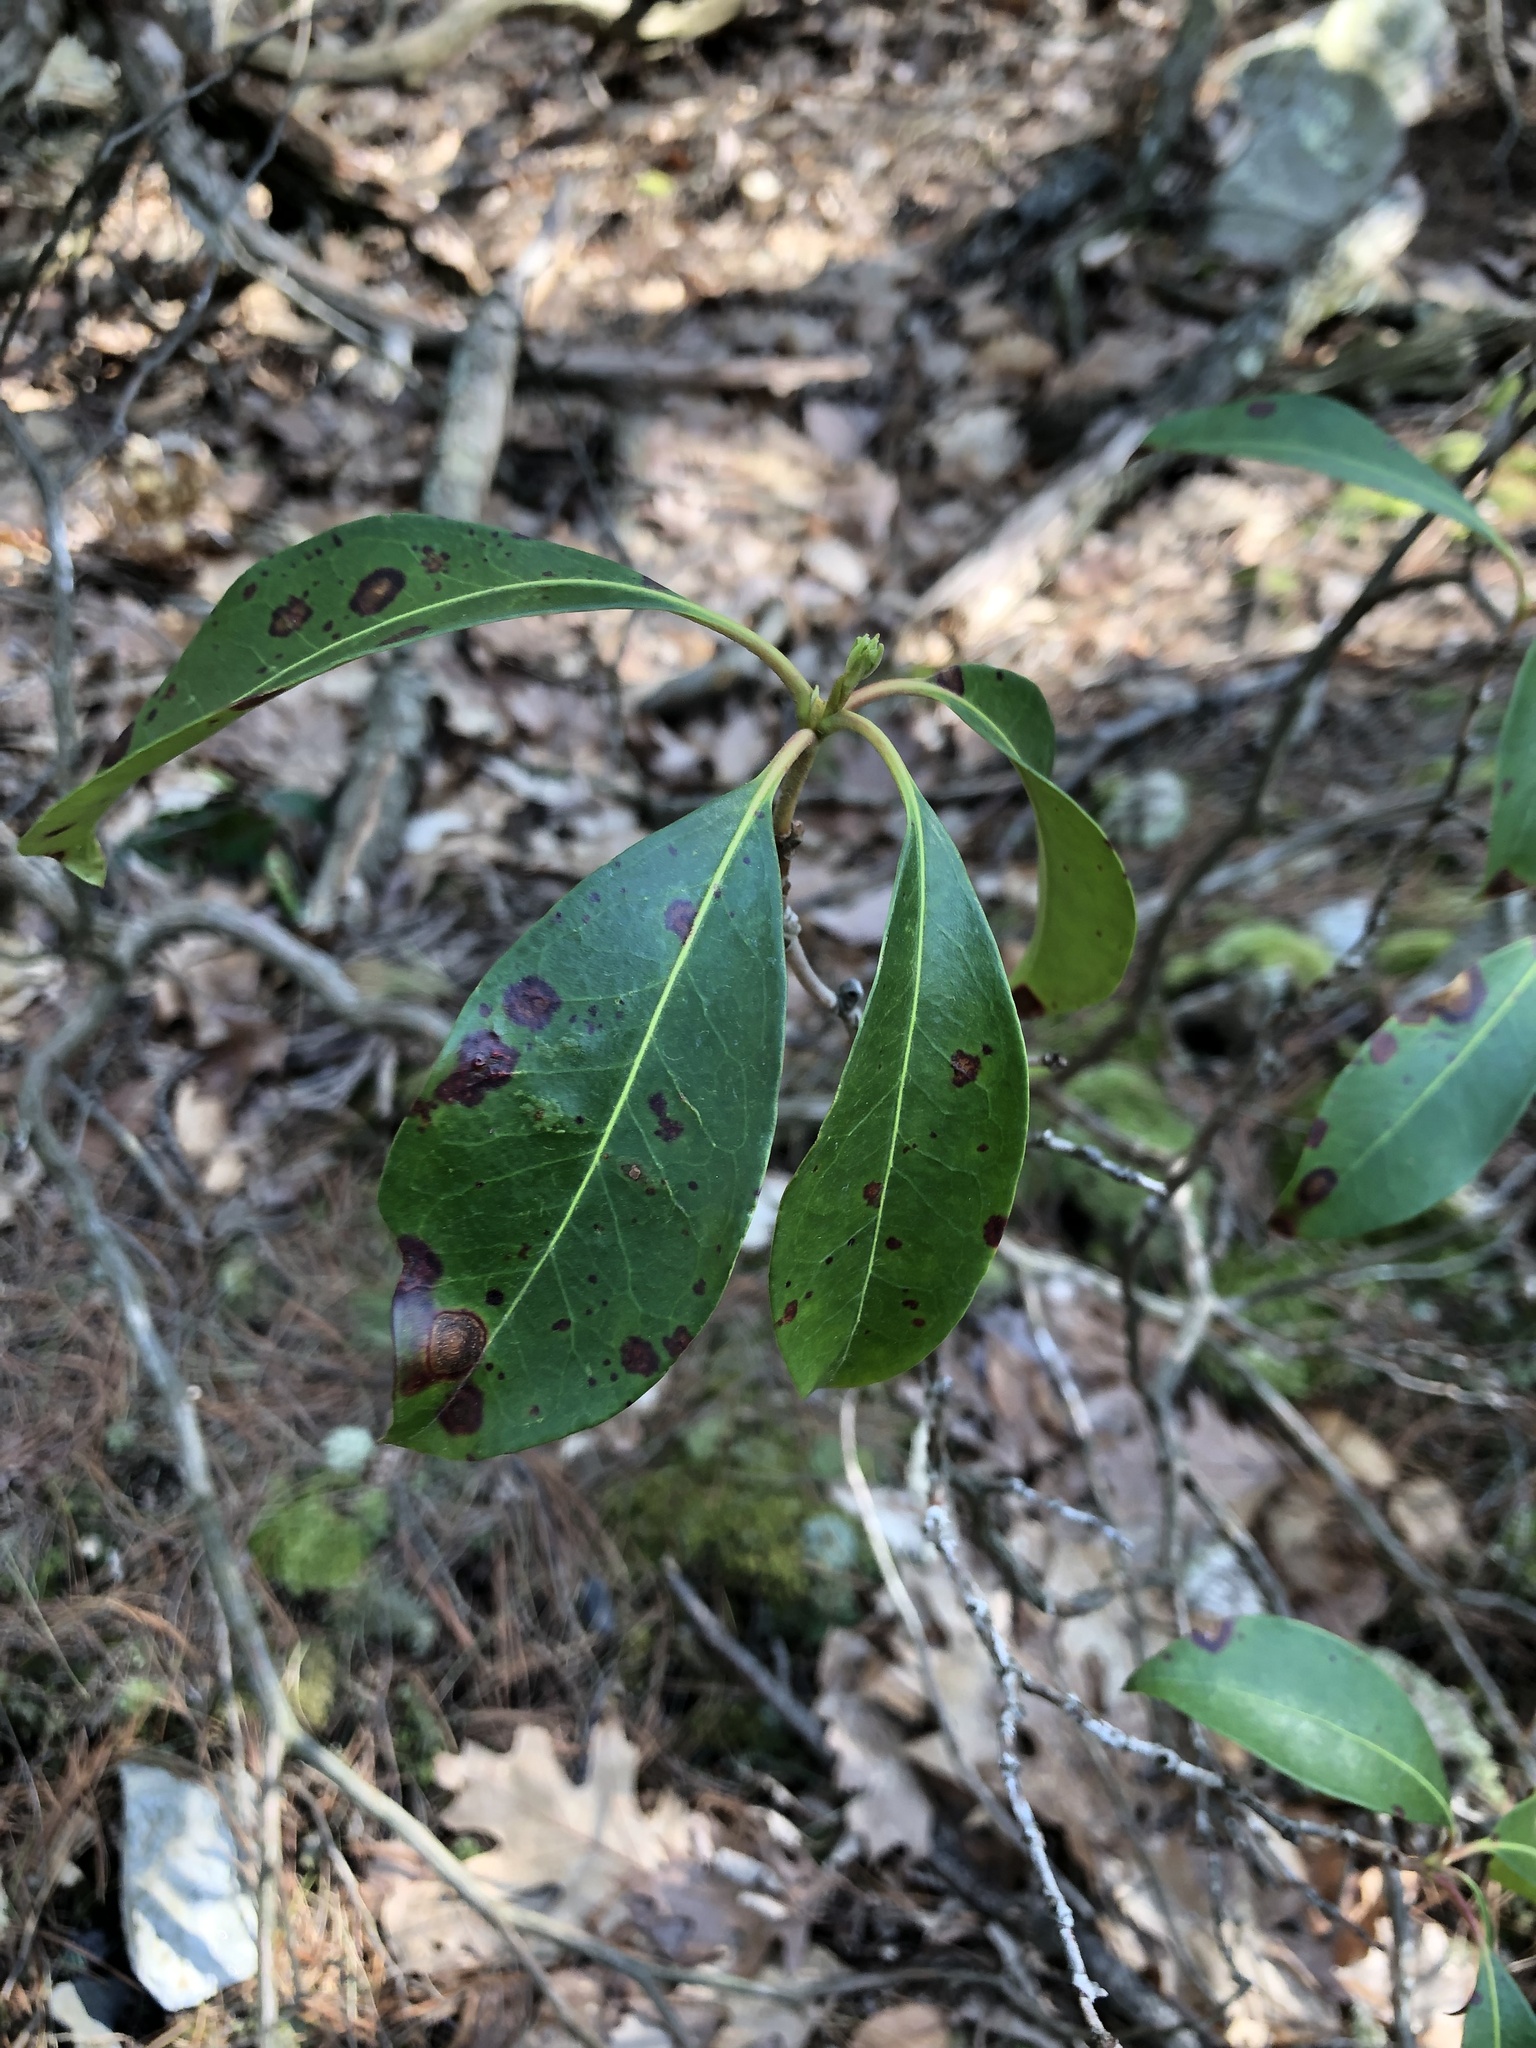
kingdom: Plantae
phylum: Tracheophyta
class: Magnoliopsida
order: Ericales
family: Ericaceae
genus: Kalmia
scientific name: Kalmia latifolia
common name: Mountain-laurel
